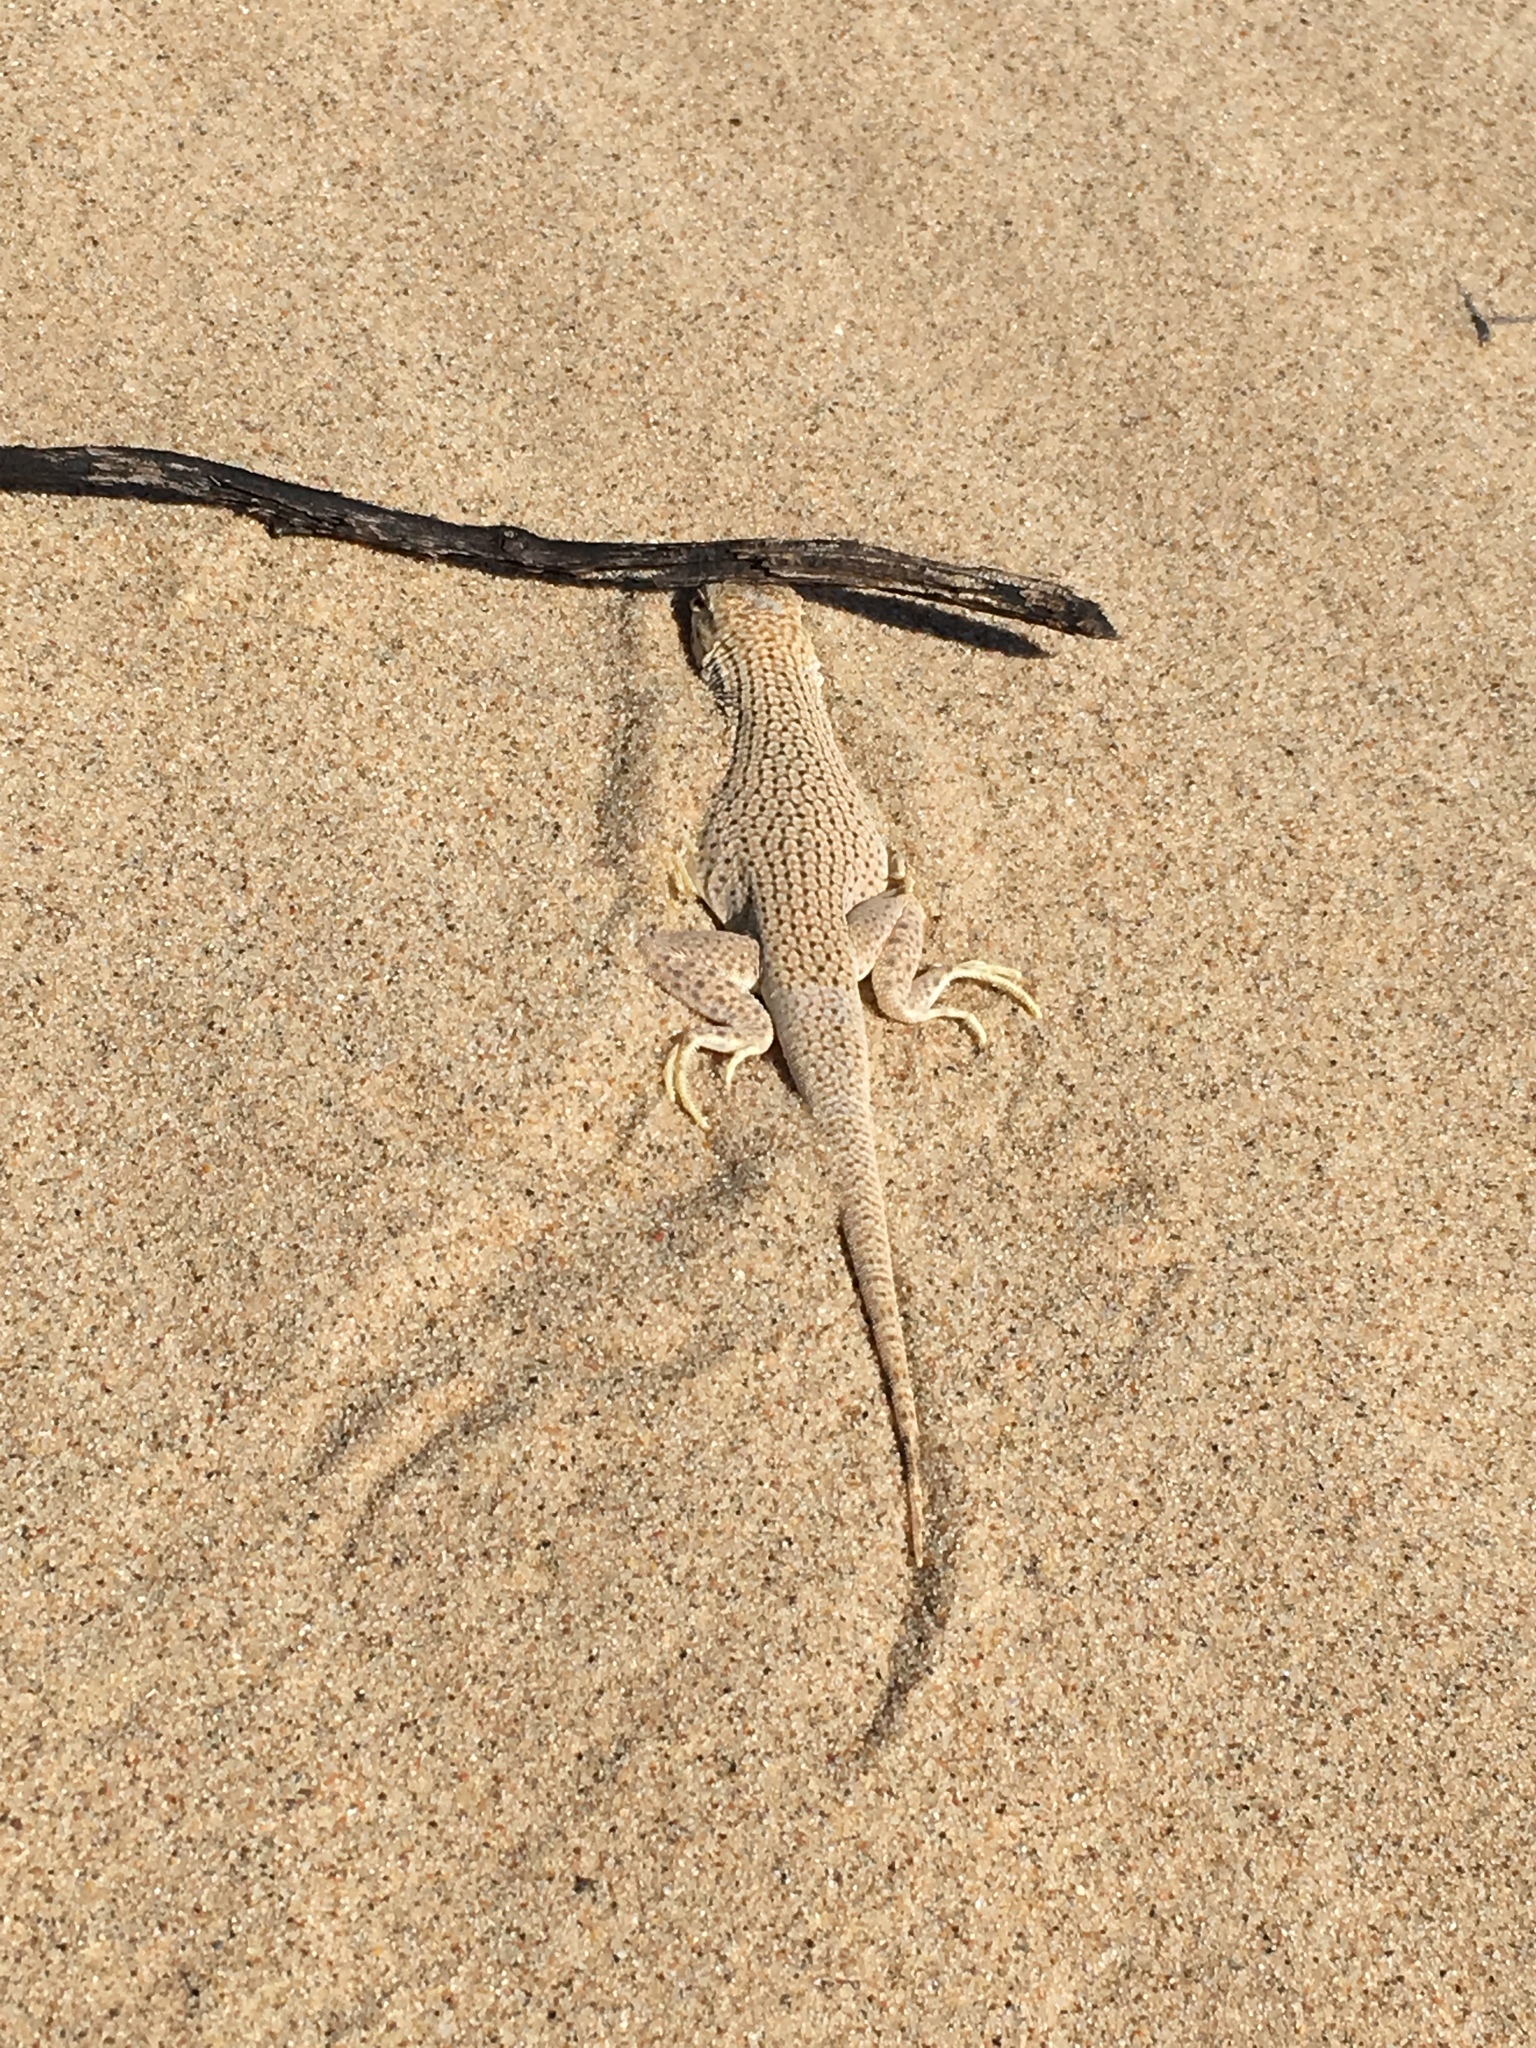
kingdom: Animalia
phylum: Chordata
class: Squamata
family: Phrynosomatidae
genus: Uma
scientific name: Uma notata
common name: Colorado desert fringe-toed lizard
